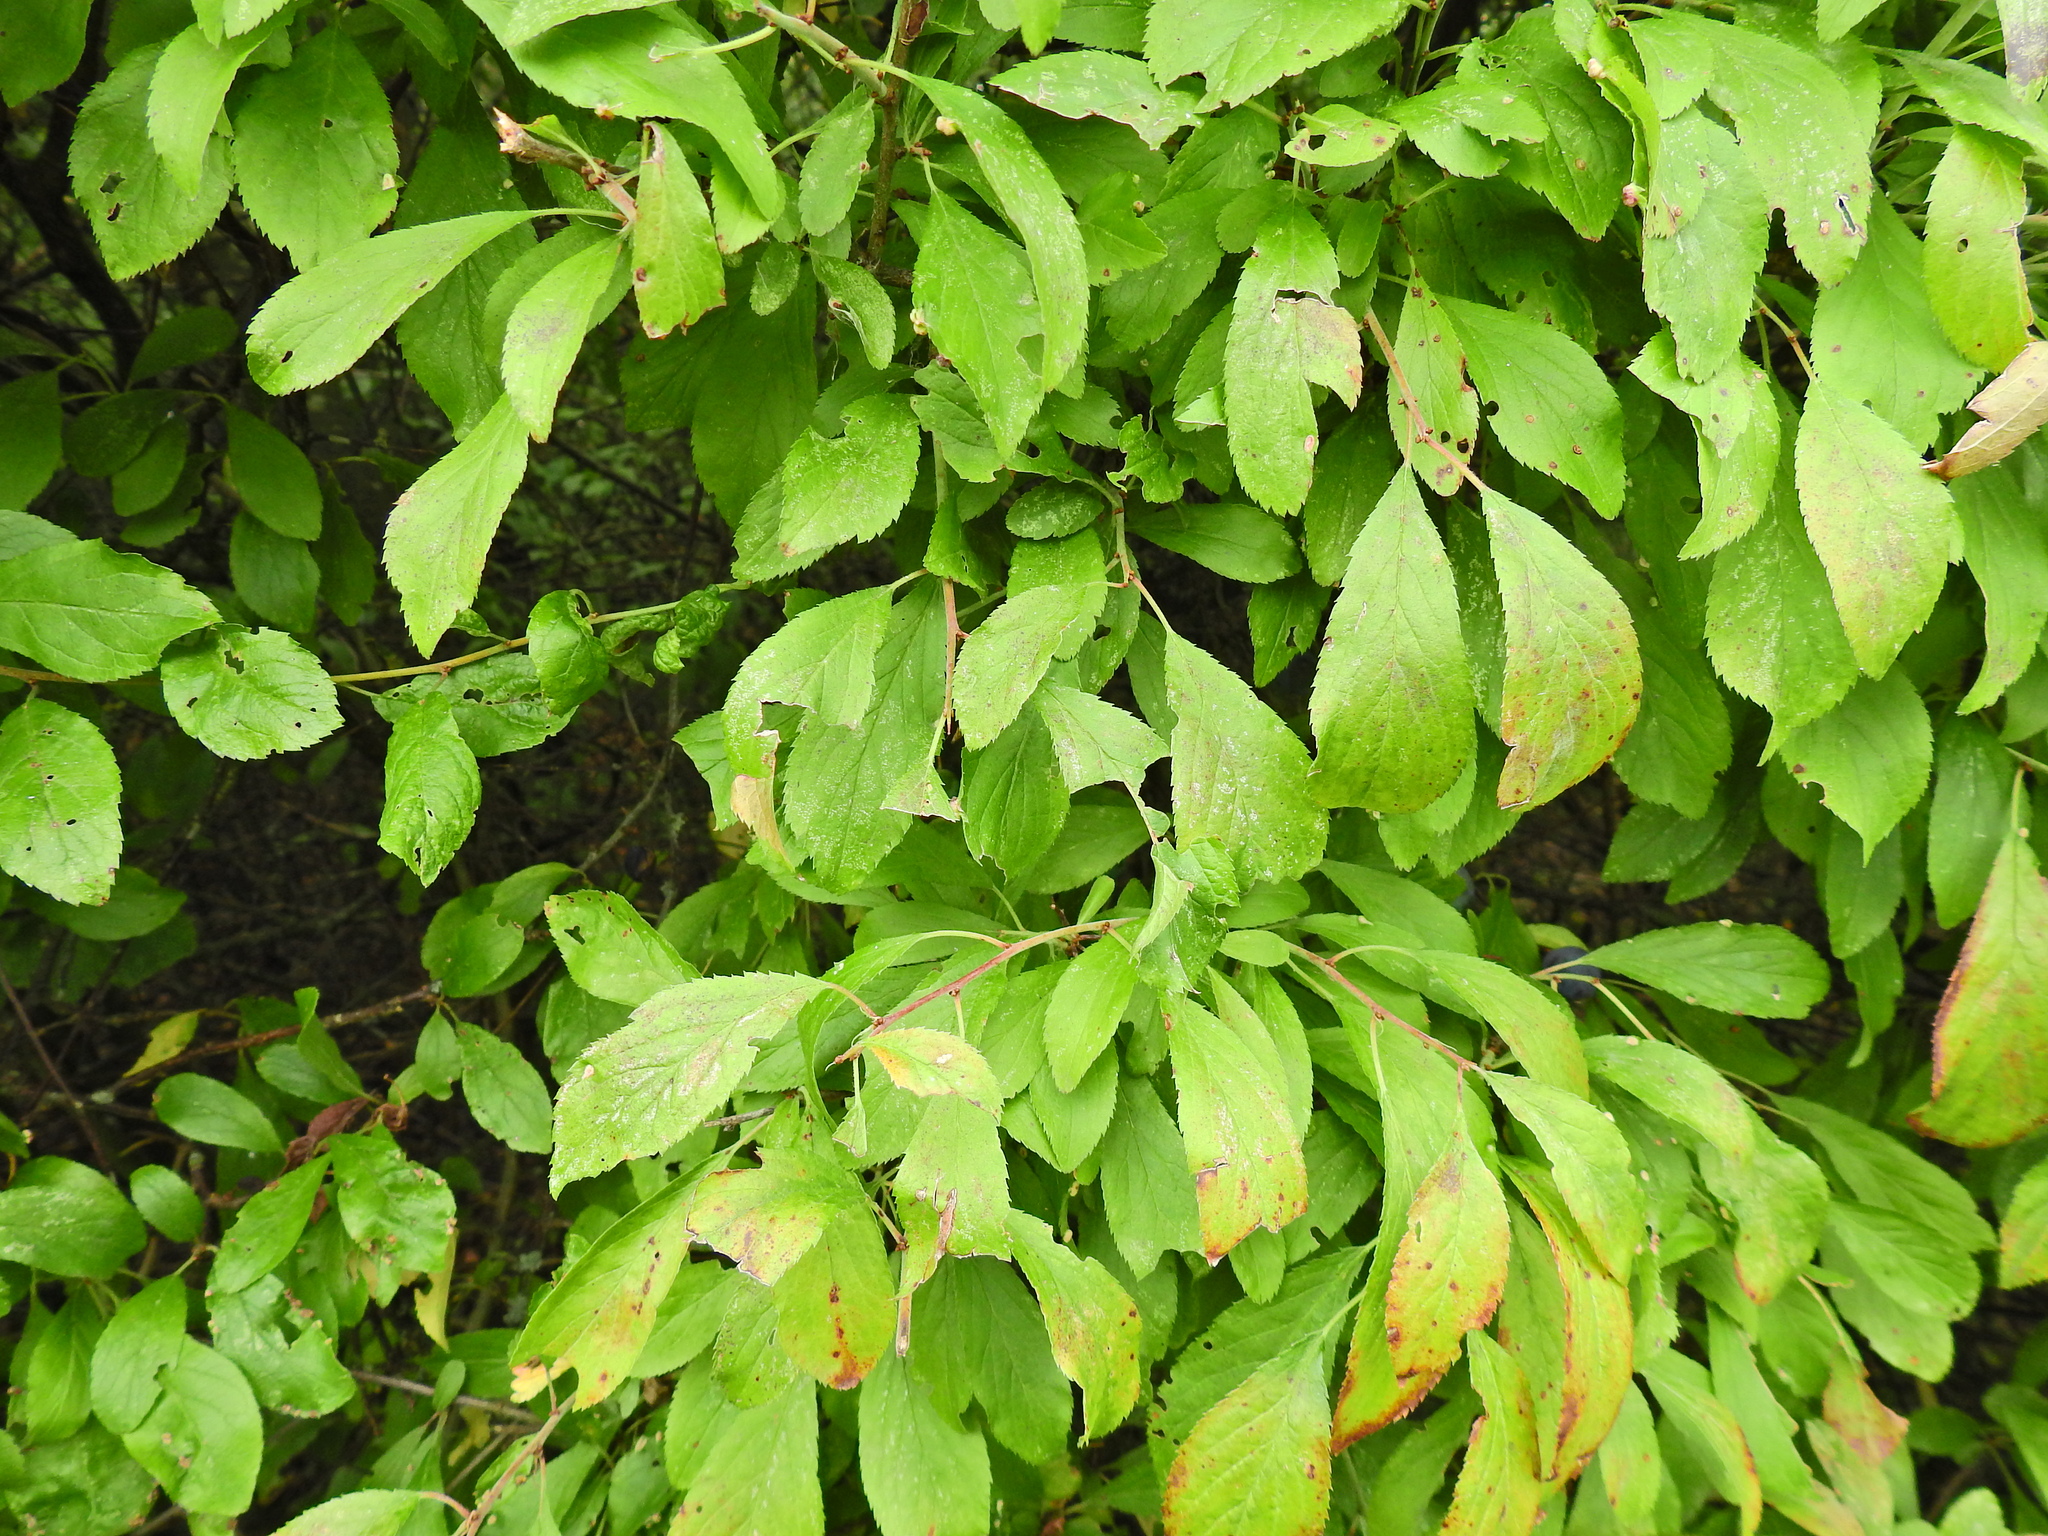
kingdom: Plantae
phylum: Tracheophyta
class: Magnoliopsida
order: Rosales
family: Rosaceae
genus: Prunus
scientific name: Prunus spinosa
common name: Blackthorn
